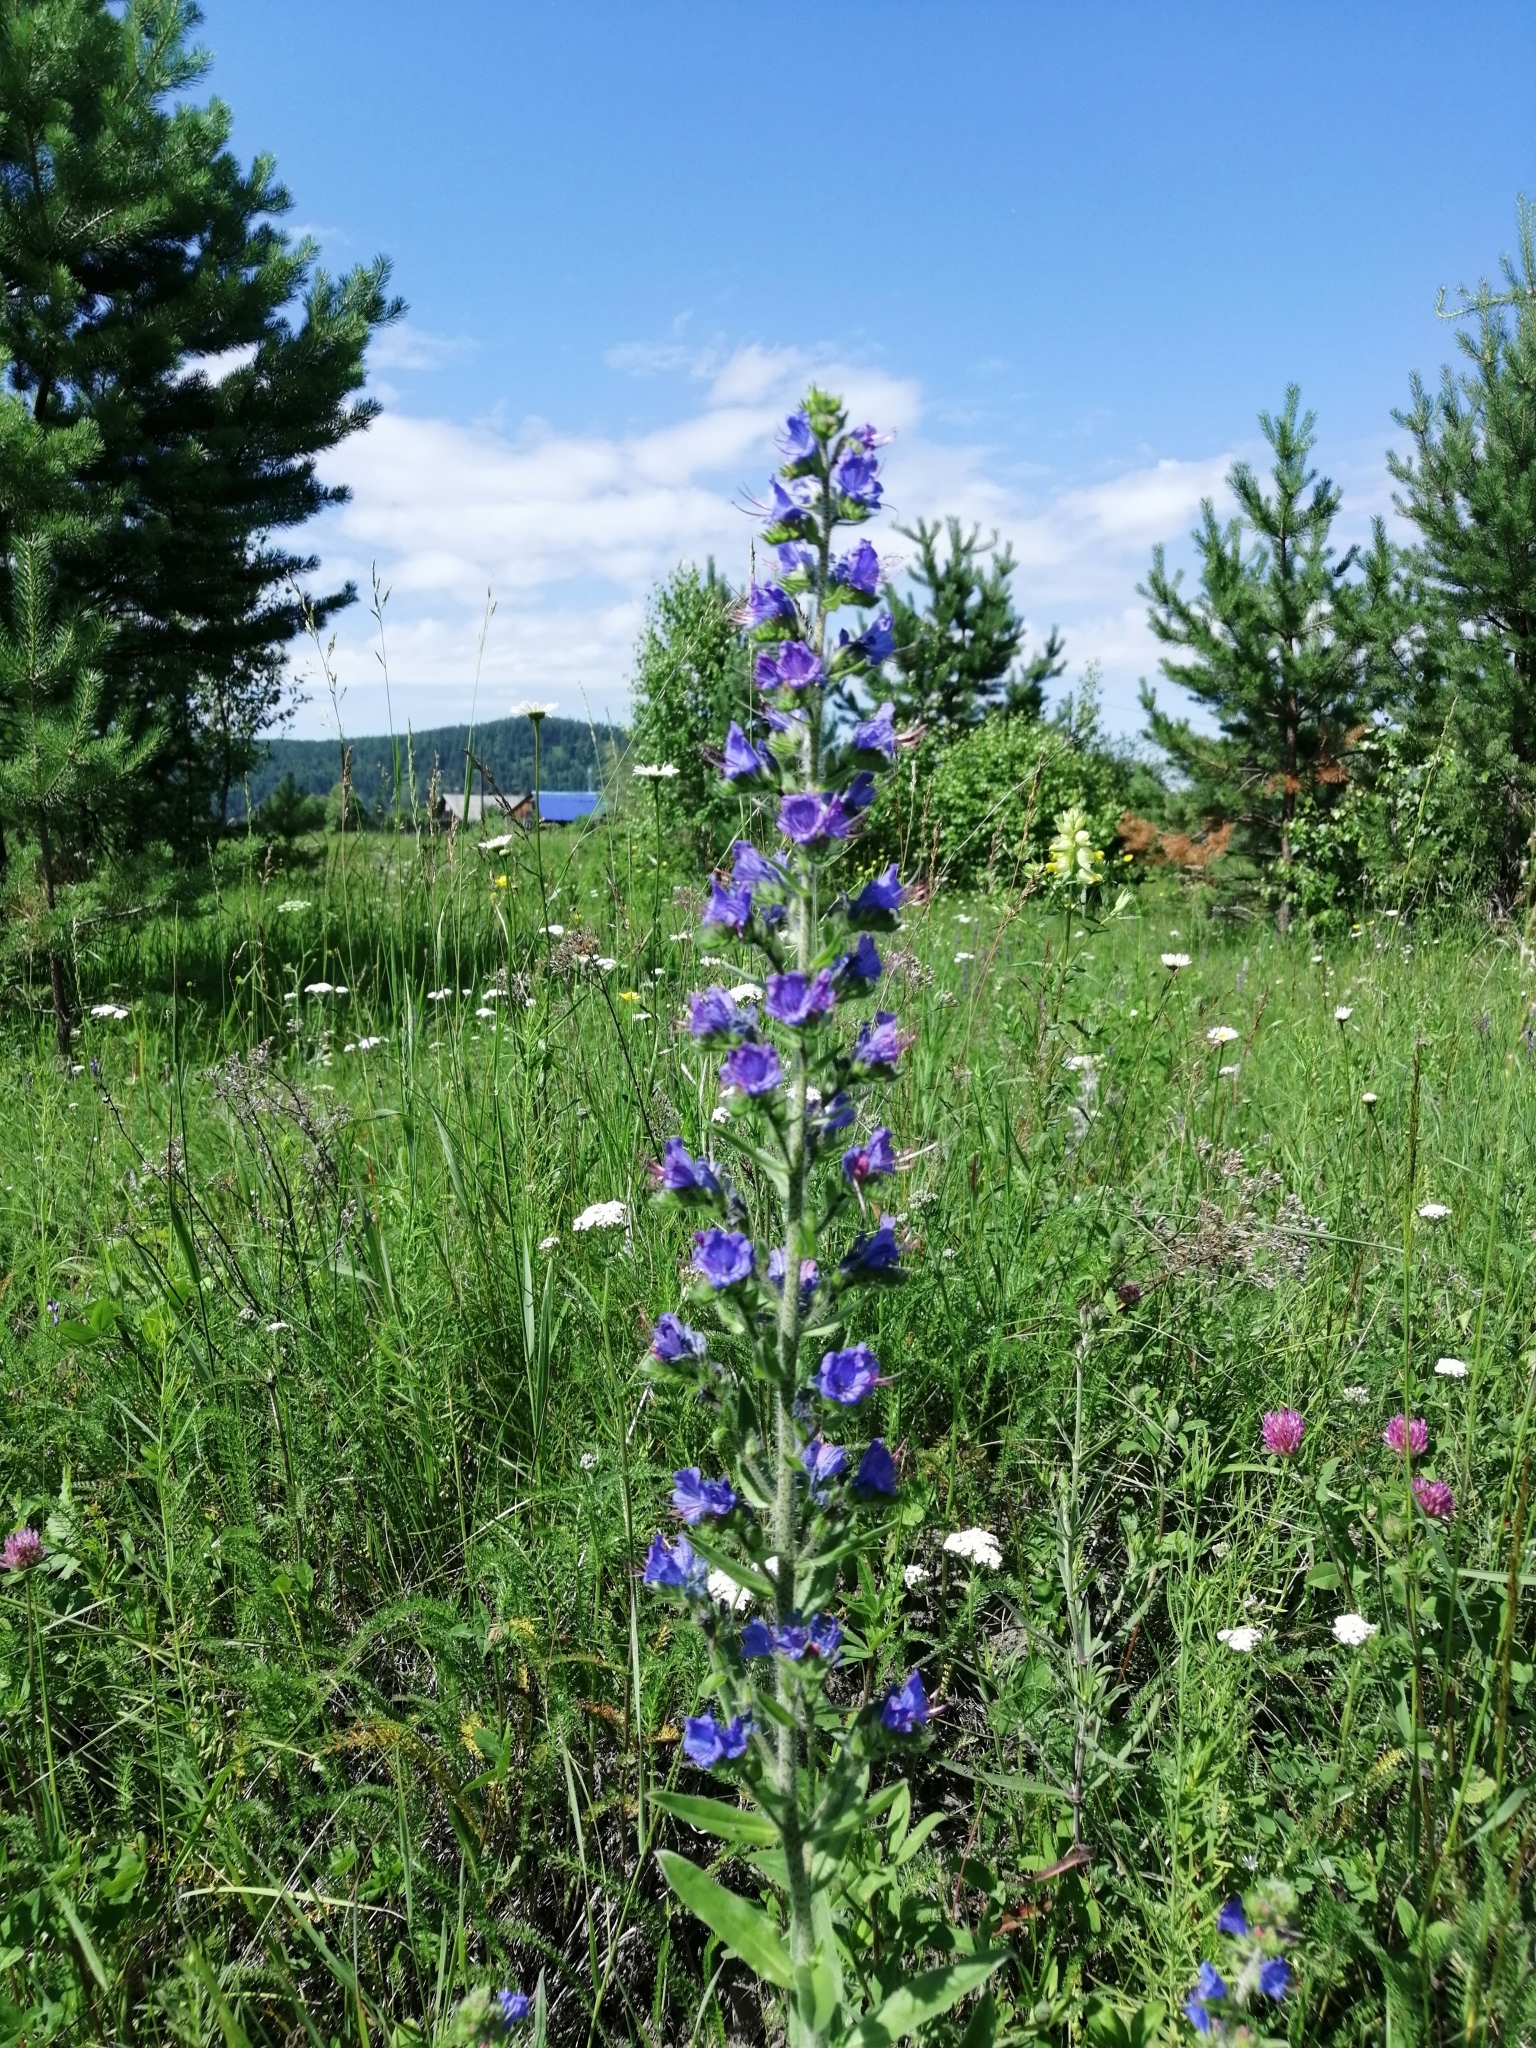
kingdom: Plantae
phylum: Tracheophyta
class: Magnoliopsida
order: Boraginales
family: Boraginaceae
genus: Echium
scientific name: Echium vulgare
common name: Common viper's bugloss
